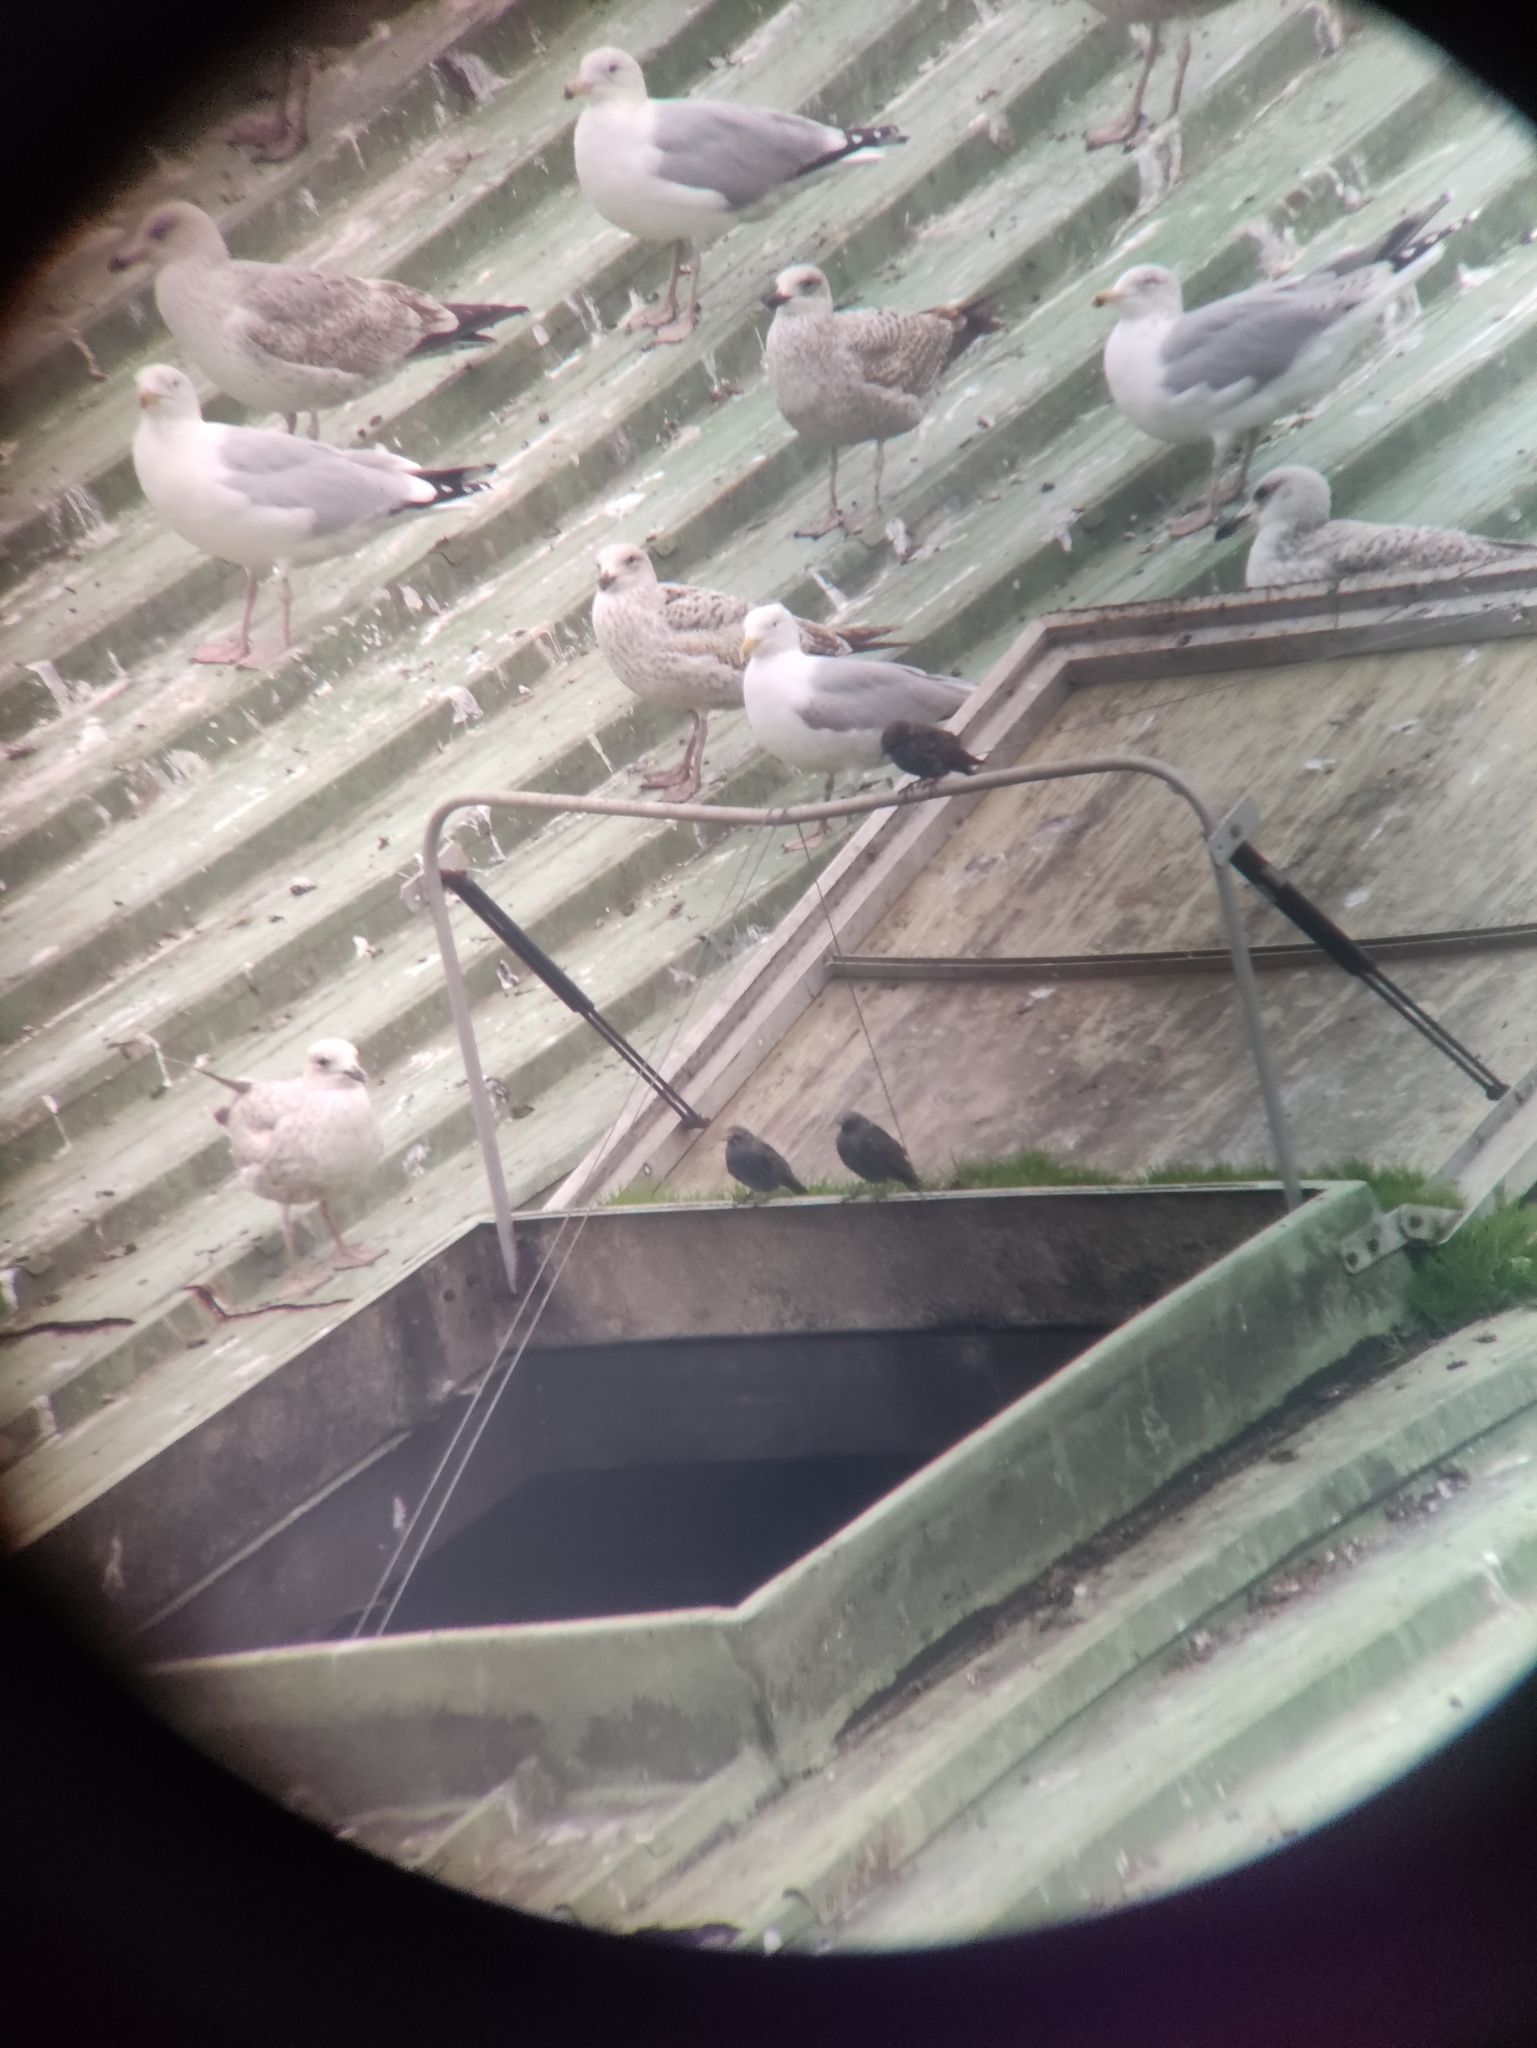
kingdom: Animalia
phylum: Chordata
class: Aves
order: Passeriformes
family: Sturnidae
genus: Sturnus
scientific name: Sturnus vulgaris
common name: Common starling
